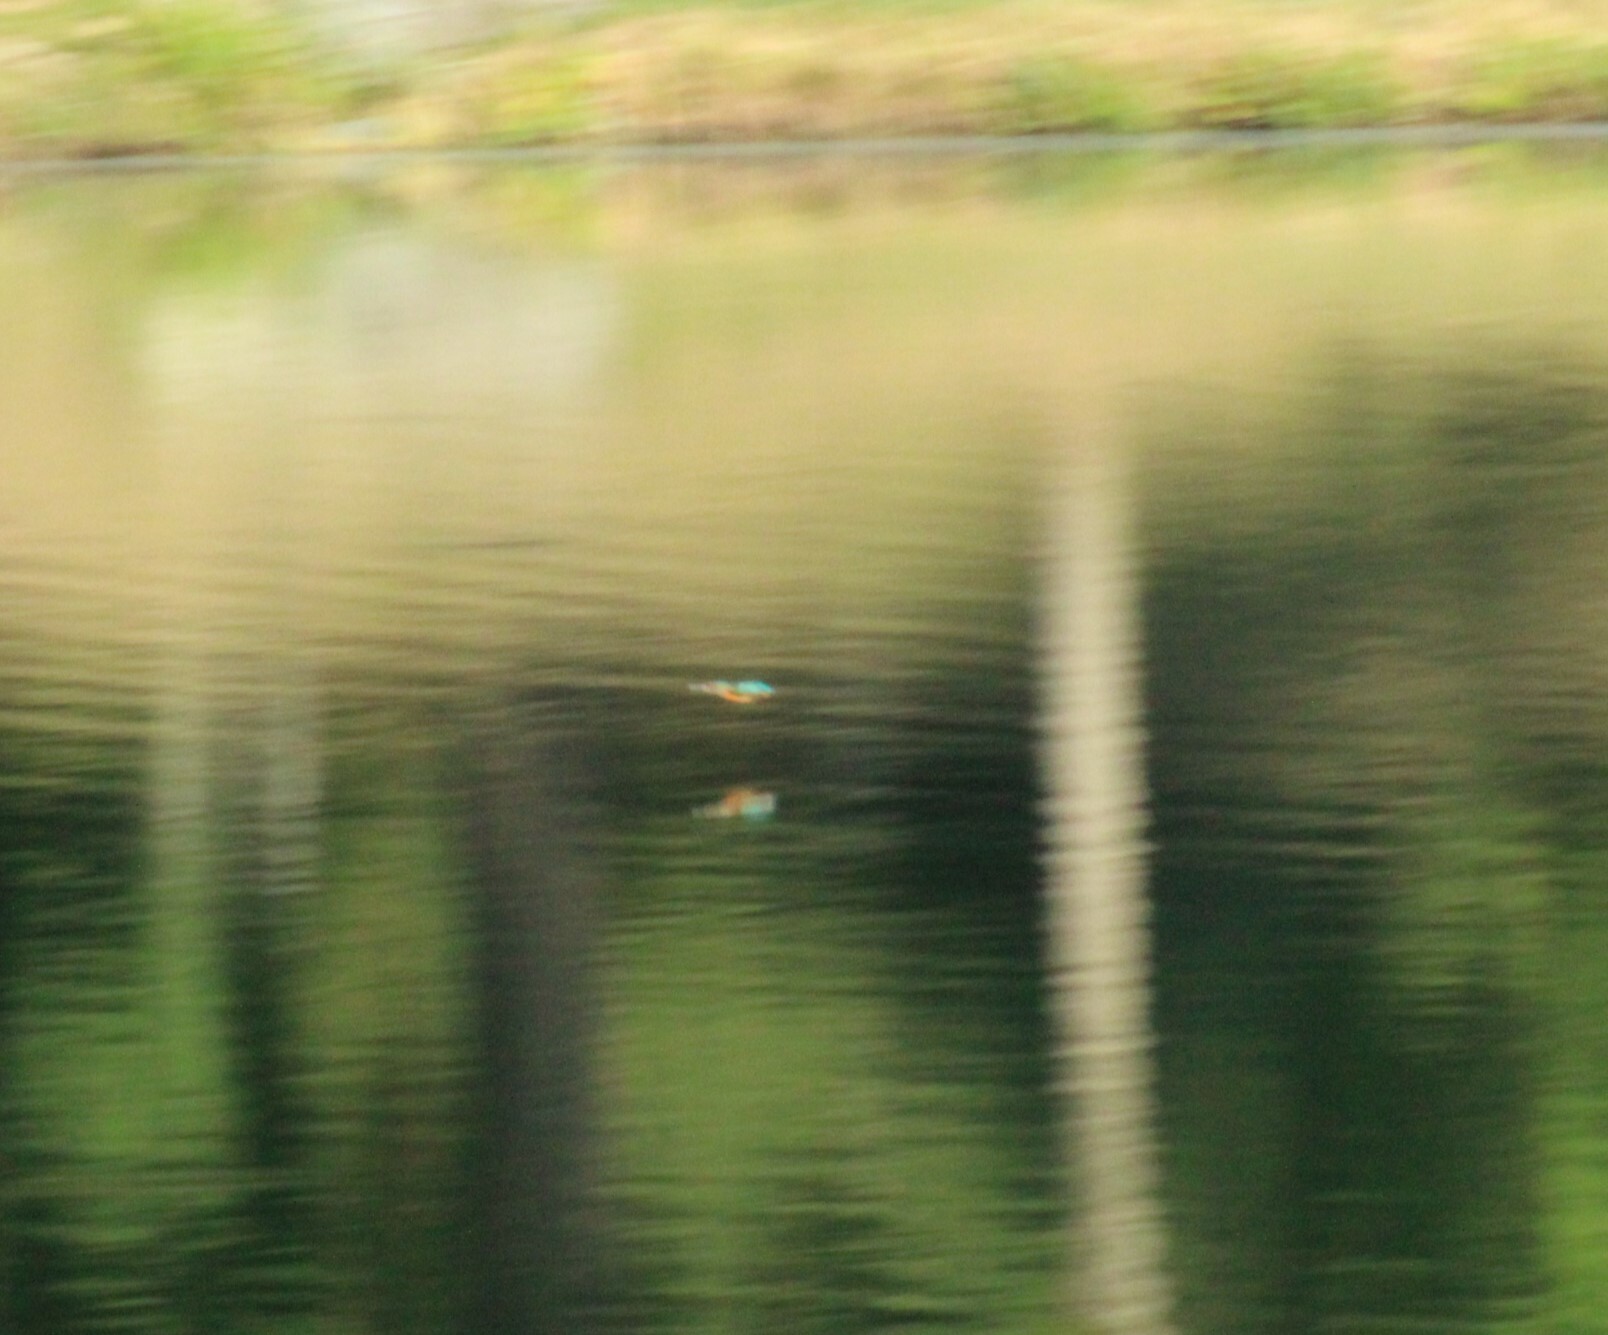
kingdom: Animalia
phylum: Chordata
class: Aves
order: Coraciiformes
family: Alcedinidae
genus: Alcedo
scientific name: Alcedo atthis
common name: Common kingfisher
